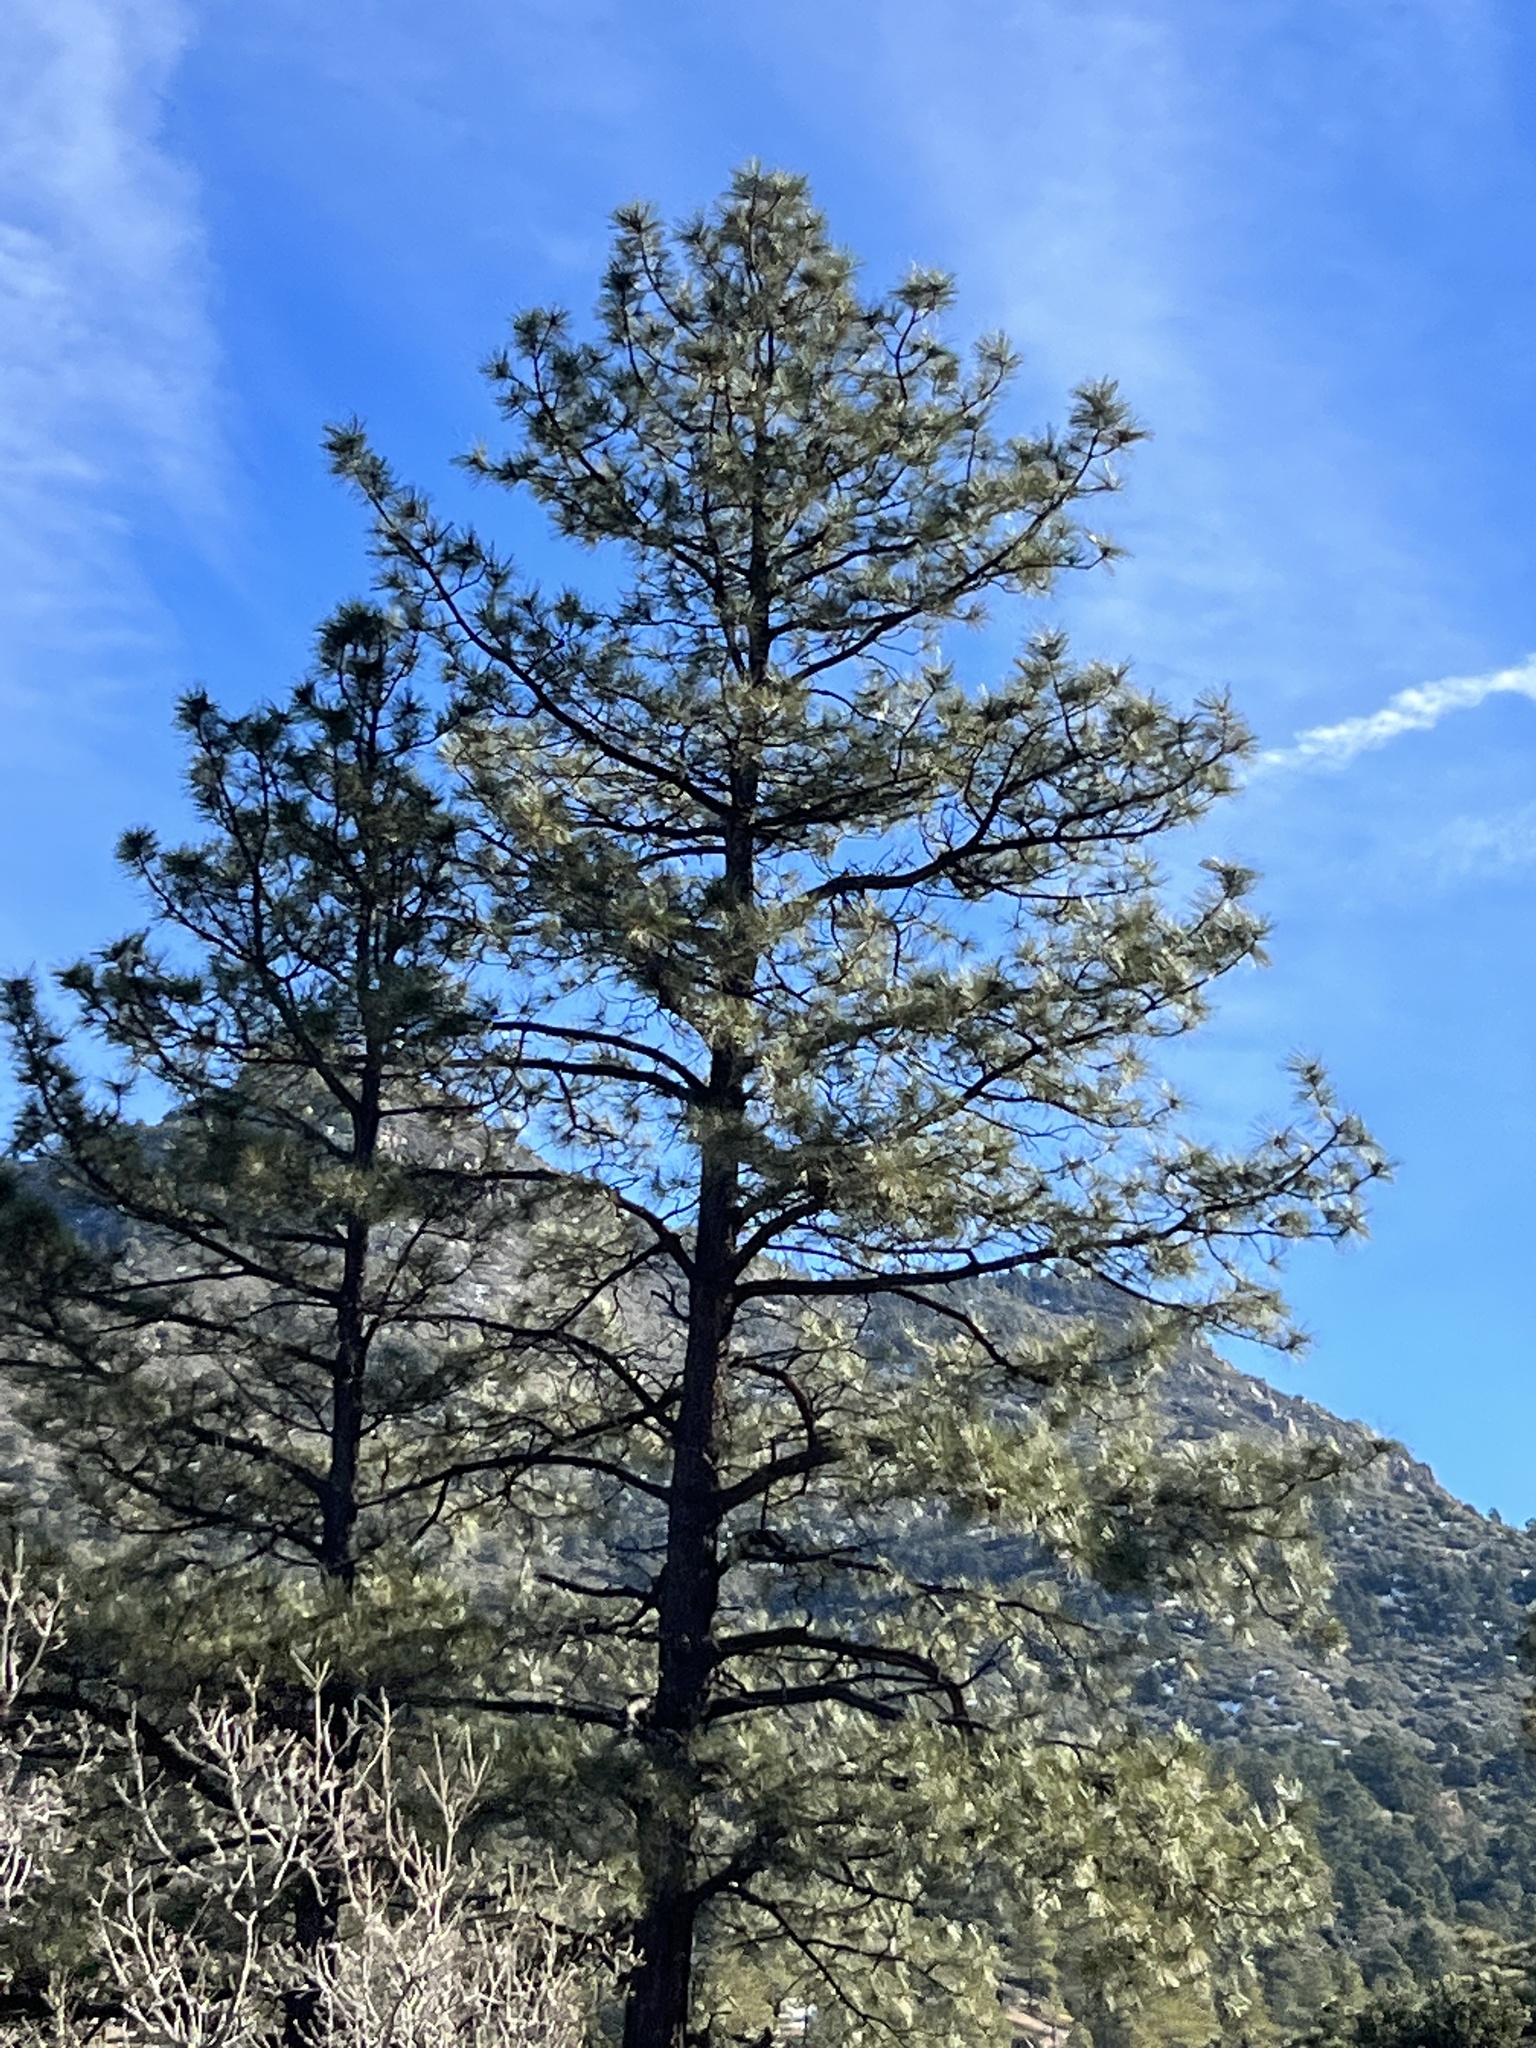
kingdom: Plantae
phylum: Tracheophyta
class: Pinopsida
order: Pinales
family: Pinaceae
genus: Pinus
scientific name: Pinus ponderosa
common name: Western yellow-pine
